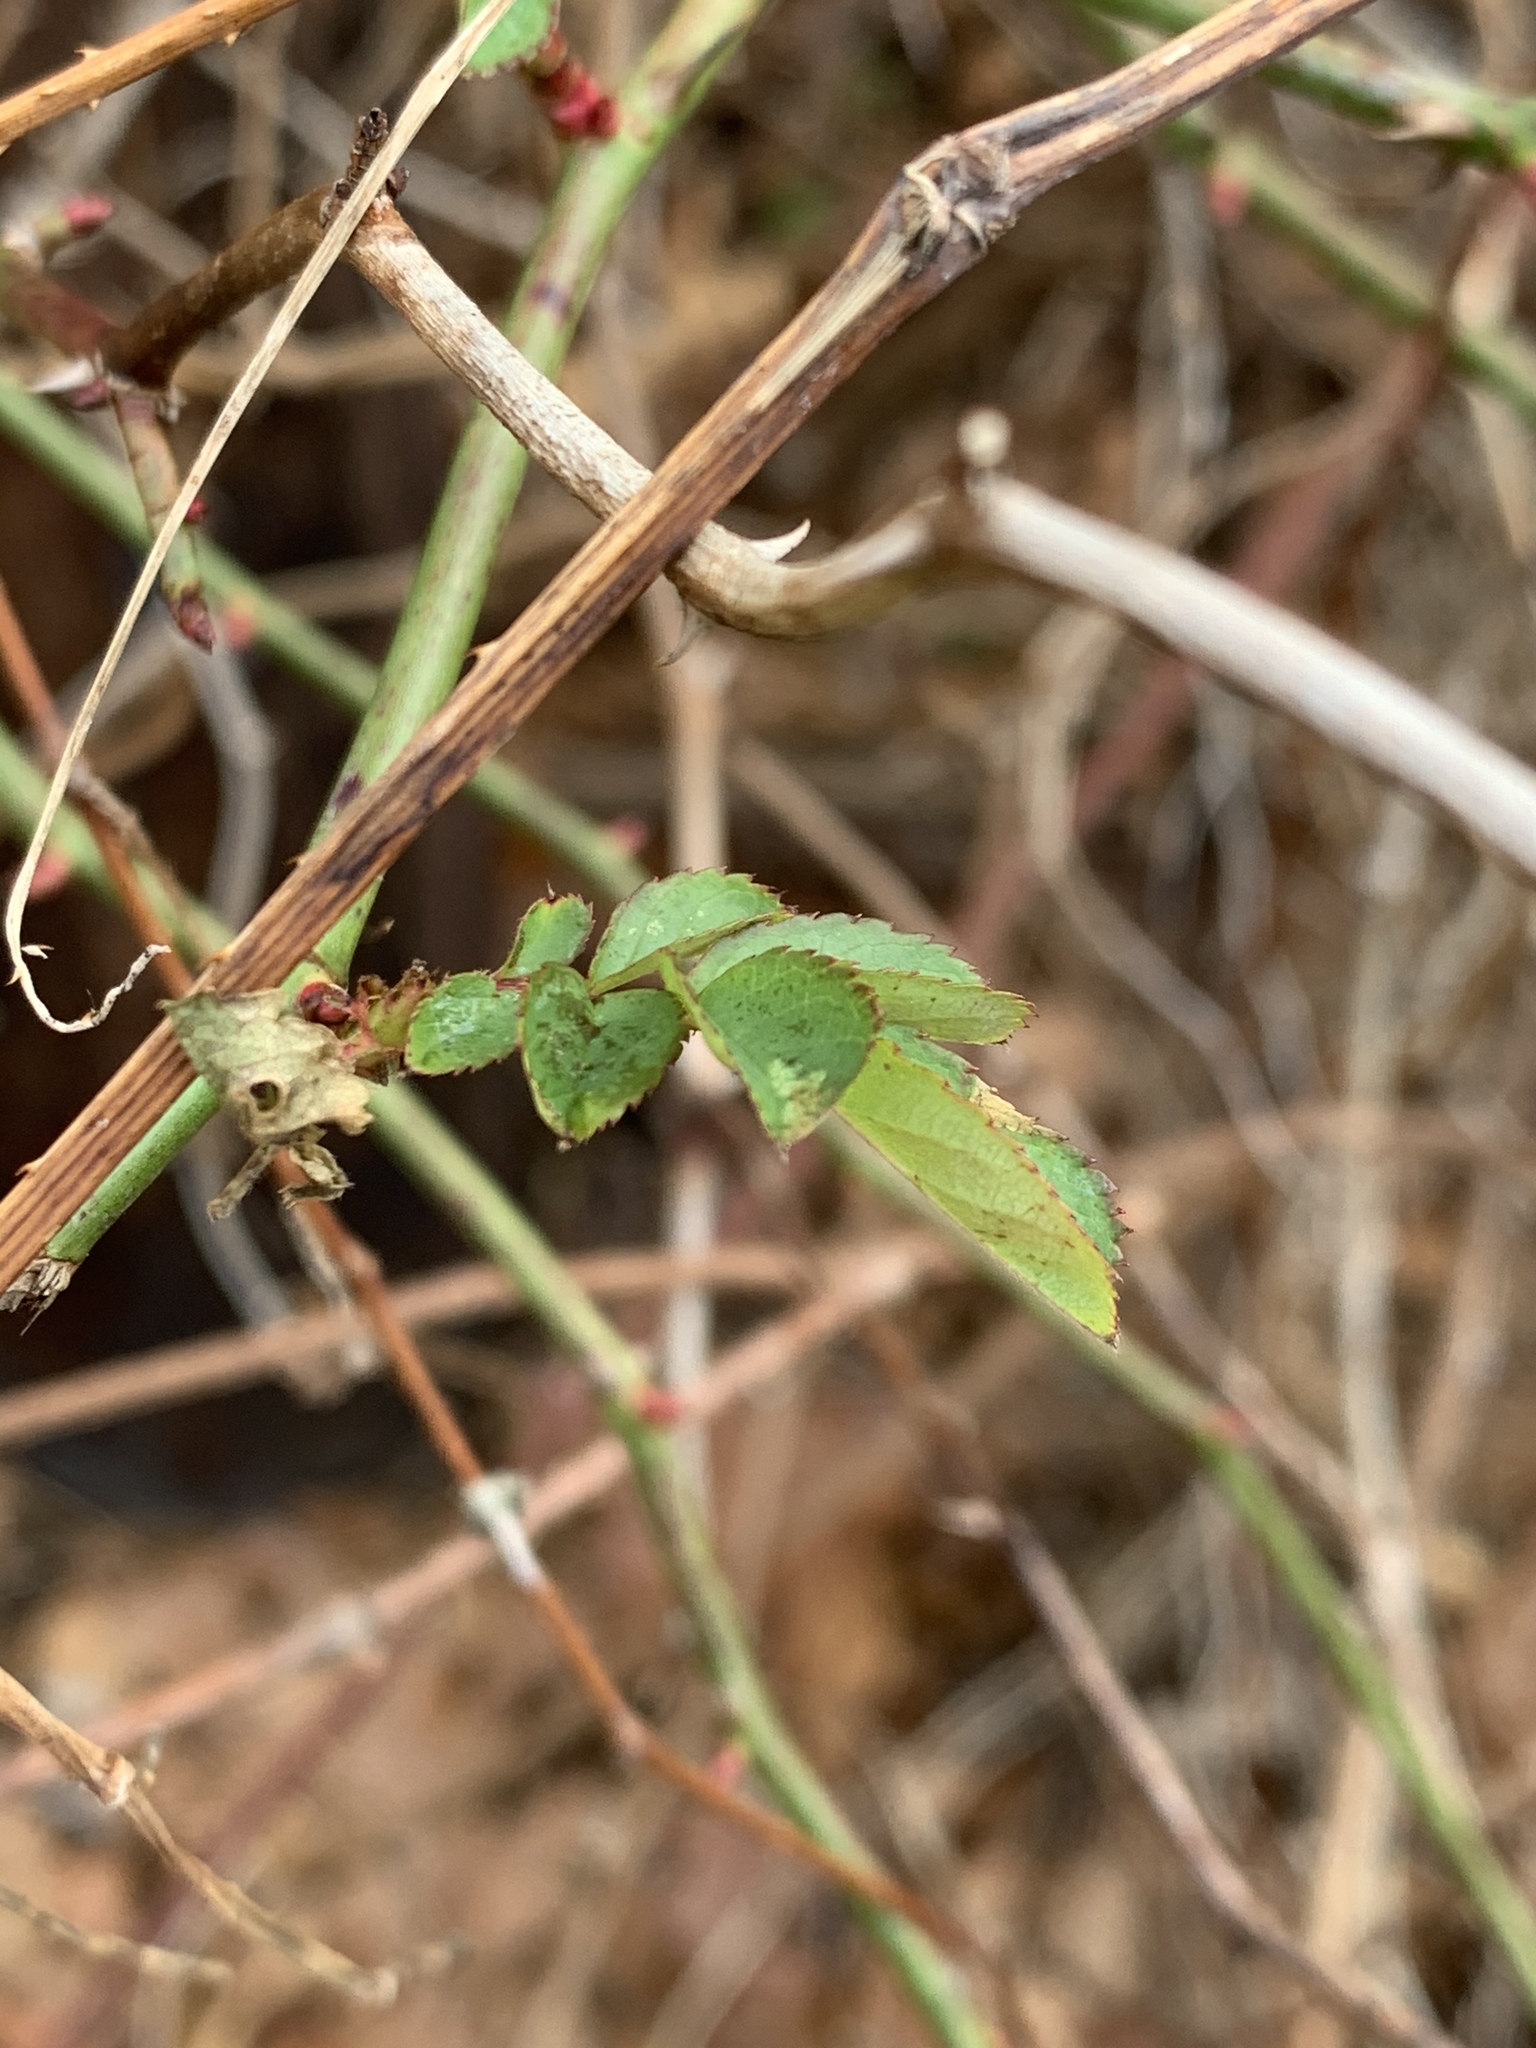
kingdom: Plantae
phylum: Tracheophyta
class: Magnoliopsida
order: Rosales
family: Rosaceae
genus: Rosa
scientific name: Rosa multiflora
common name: Multiflora rose
